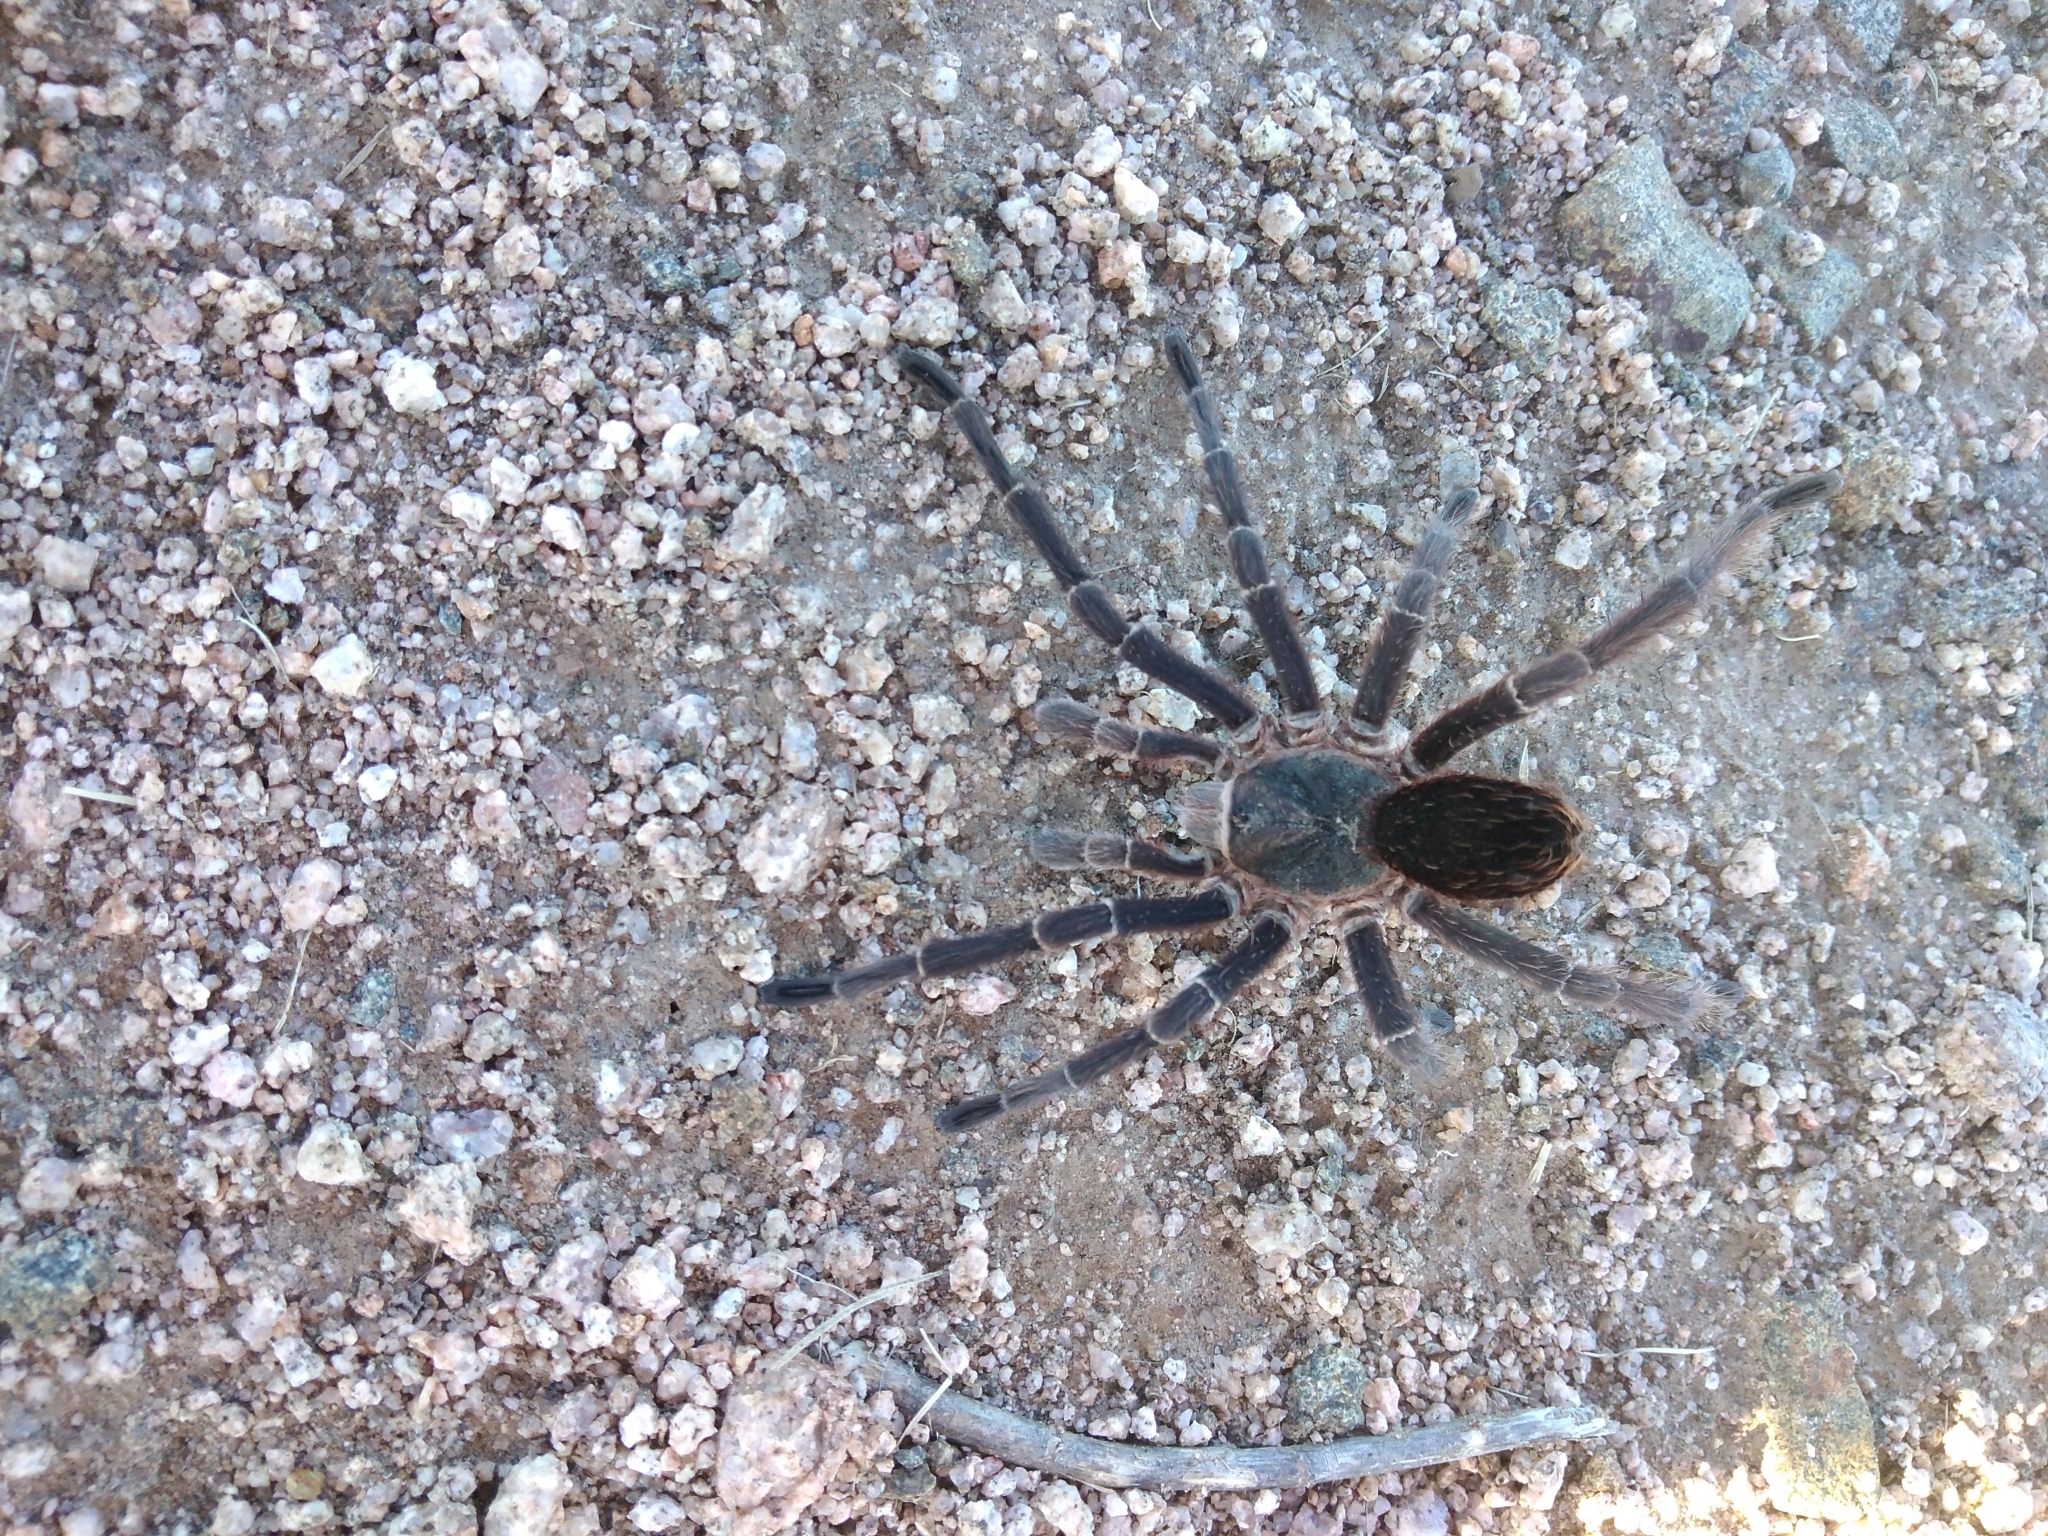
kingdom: Animalia
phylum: Arthropoda
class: Arachnida
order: Araneae
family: Theraphosidae
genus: Eupalaestrus
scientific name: Eupalaestrus weijenberghi
